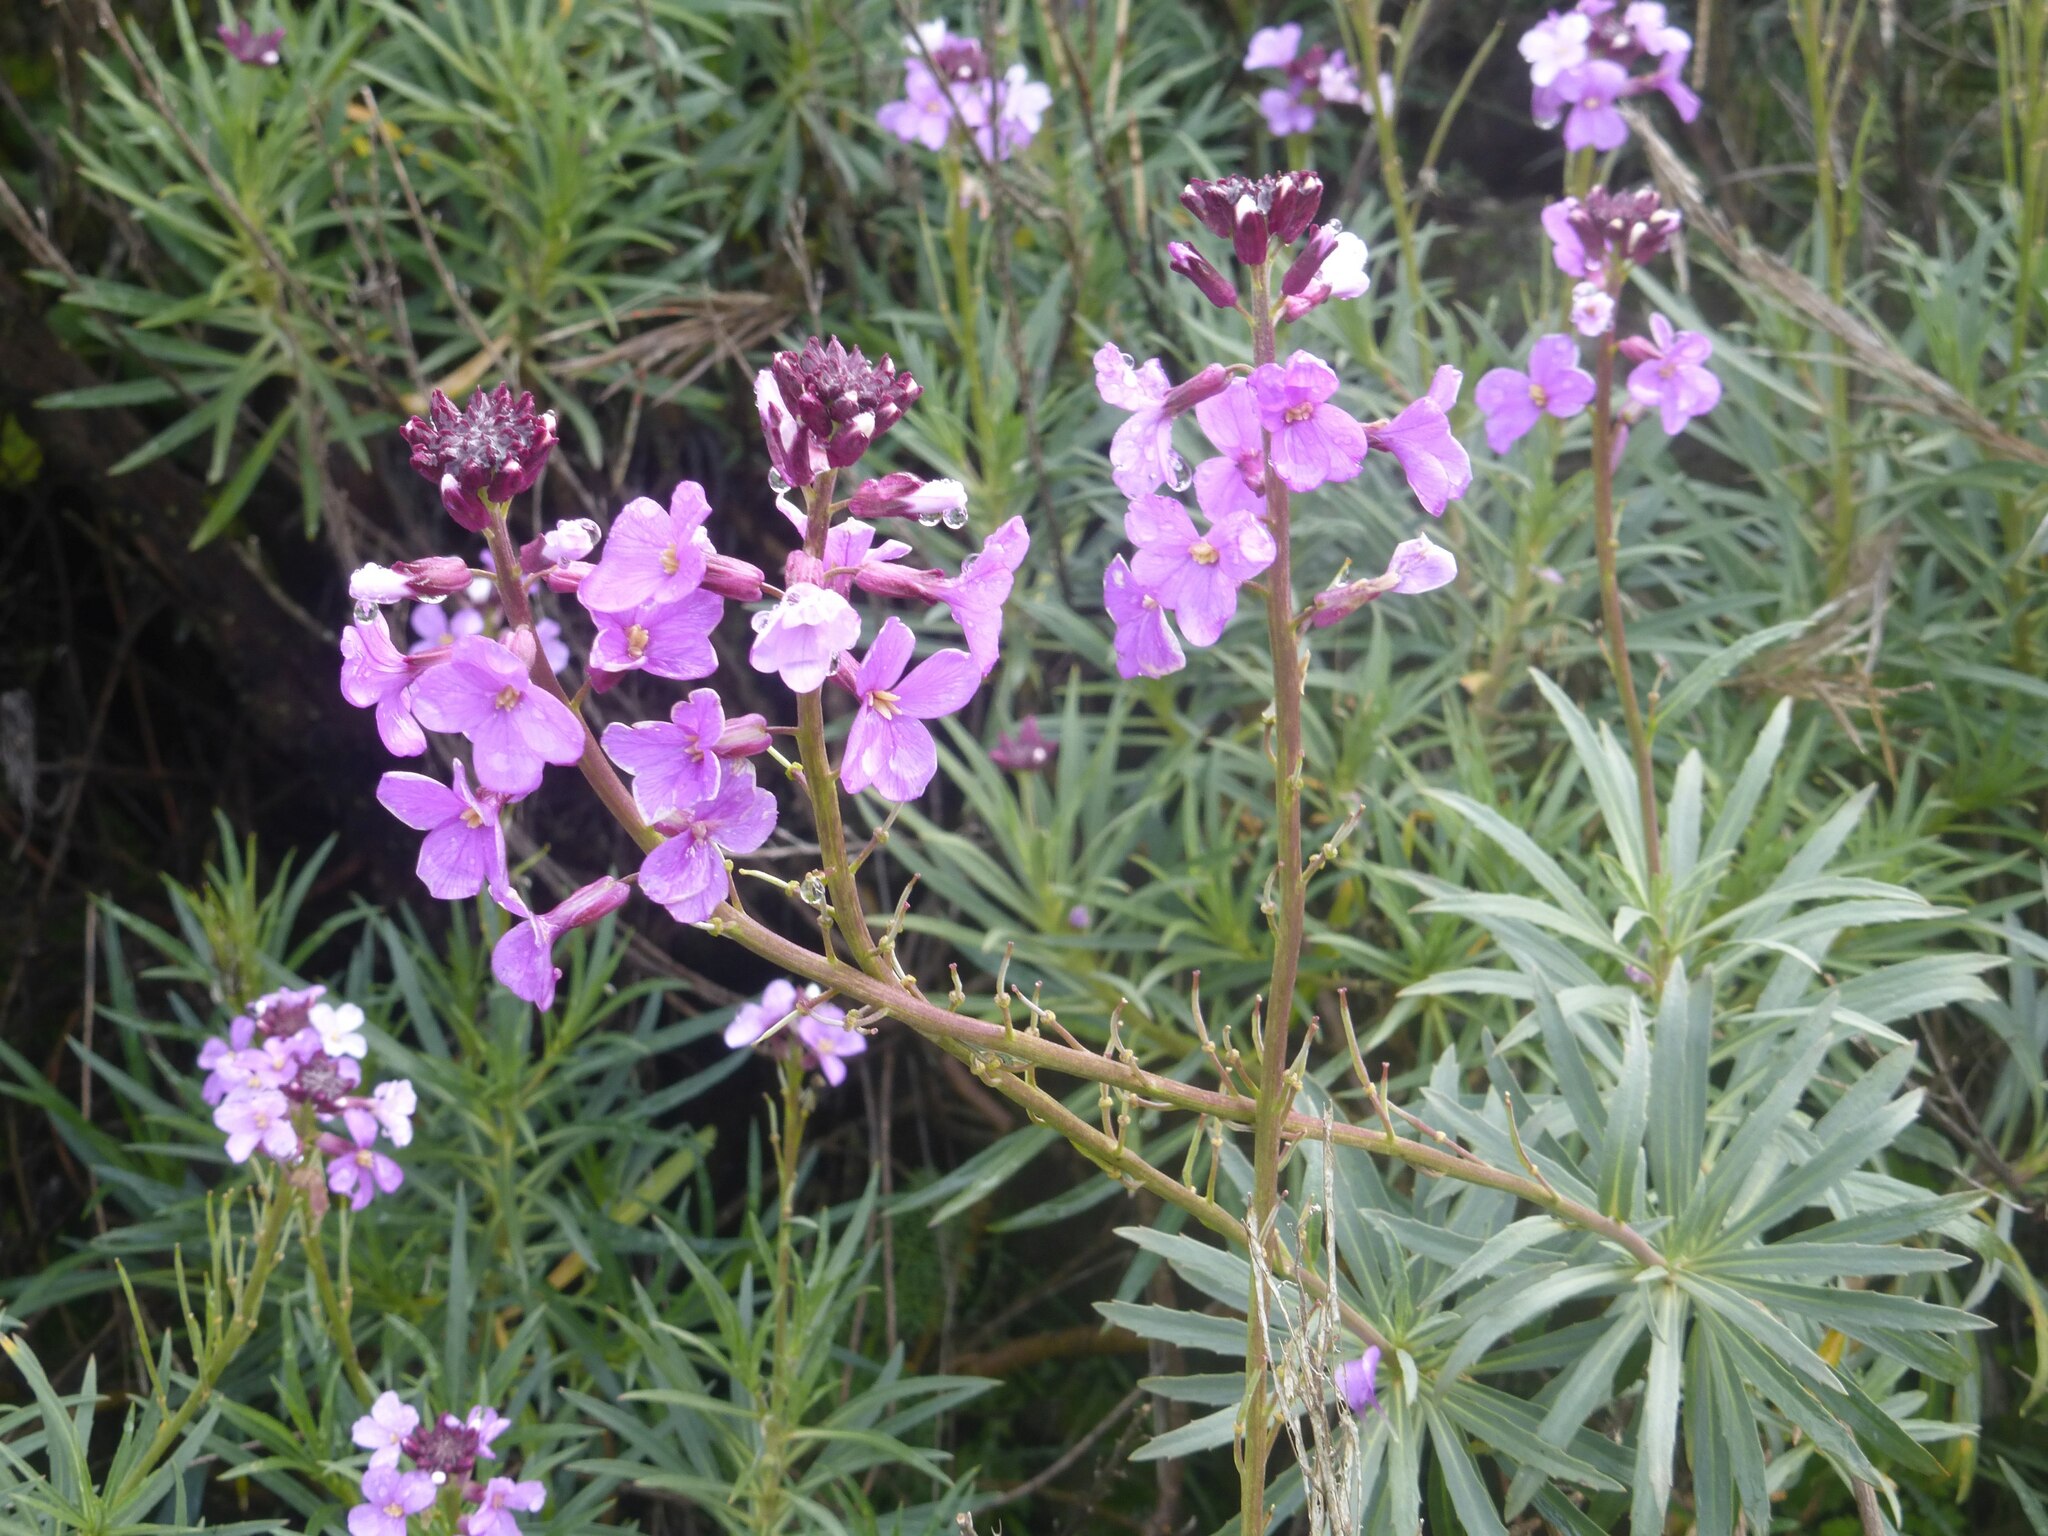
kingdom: Plantae
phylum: Tracheophyta
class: Magnoliopsida
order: Brassicales
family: Brassicaceae
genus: Erysimum
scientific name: Erysimum bicolor
